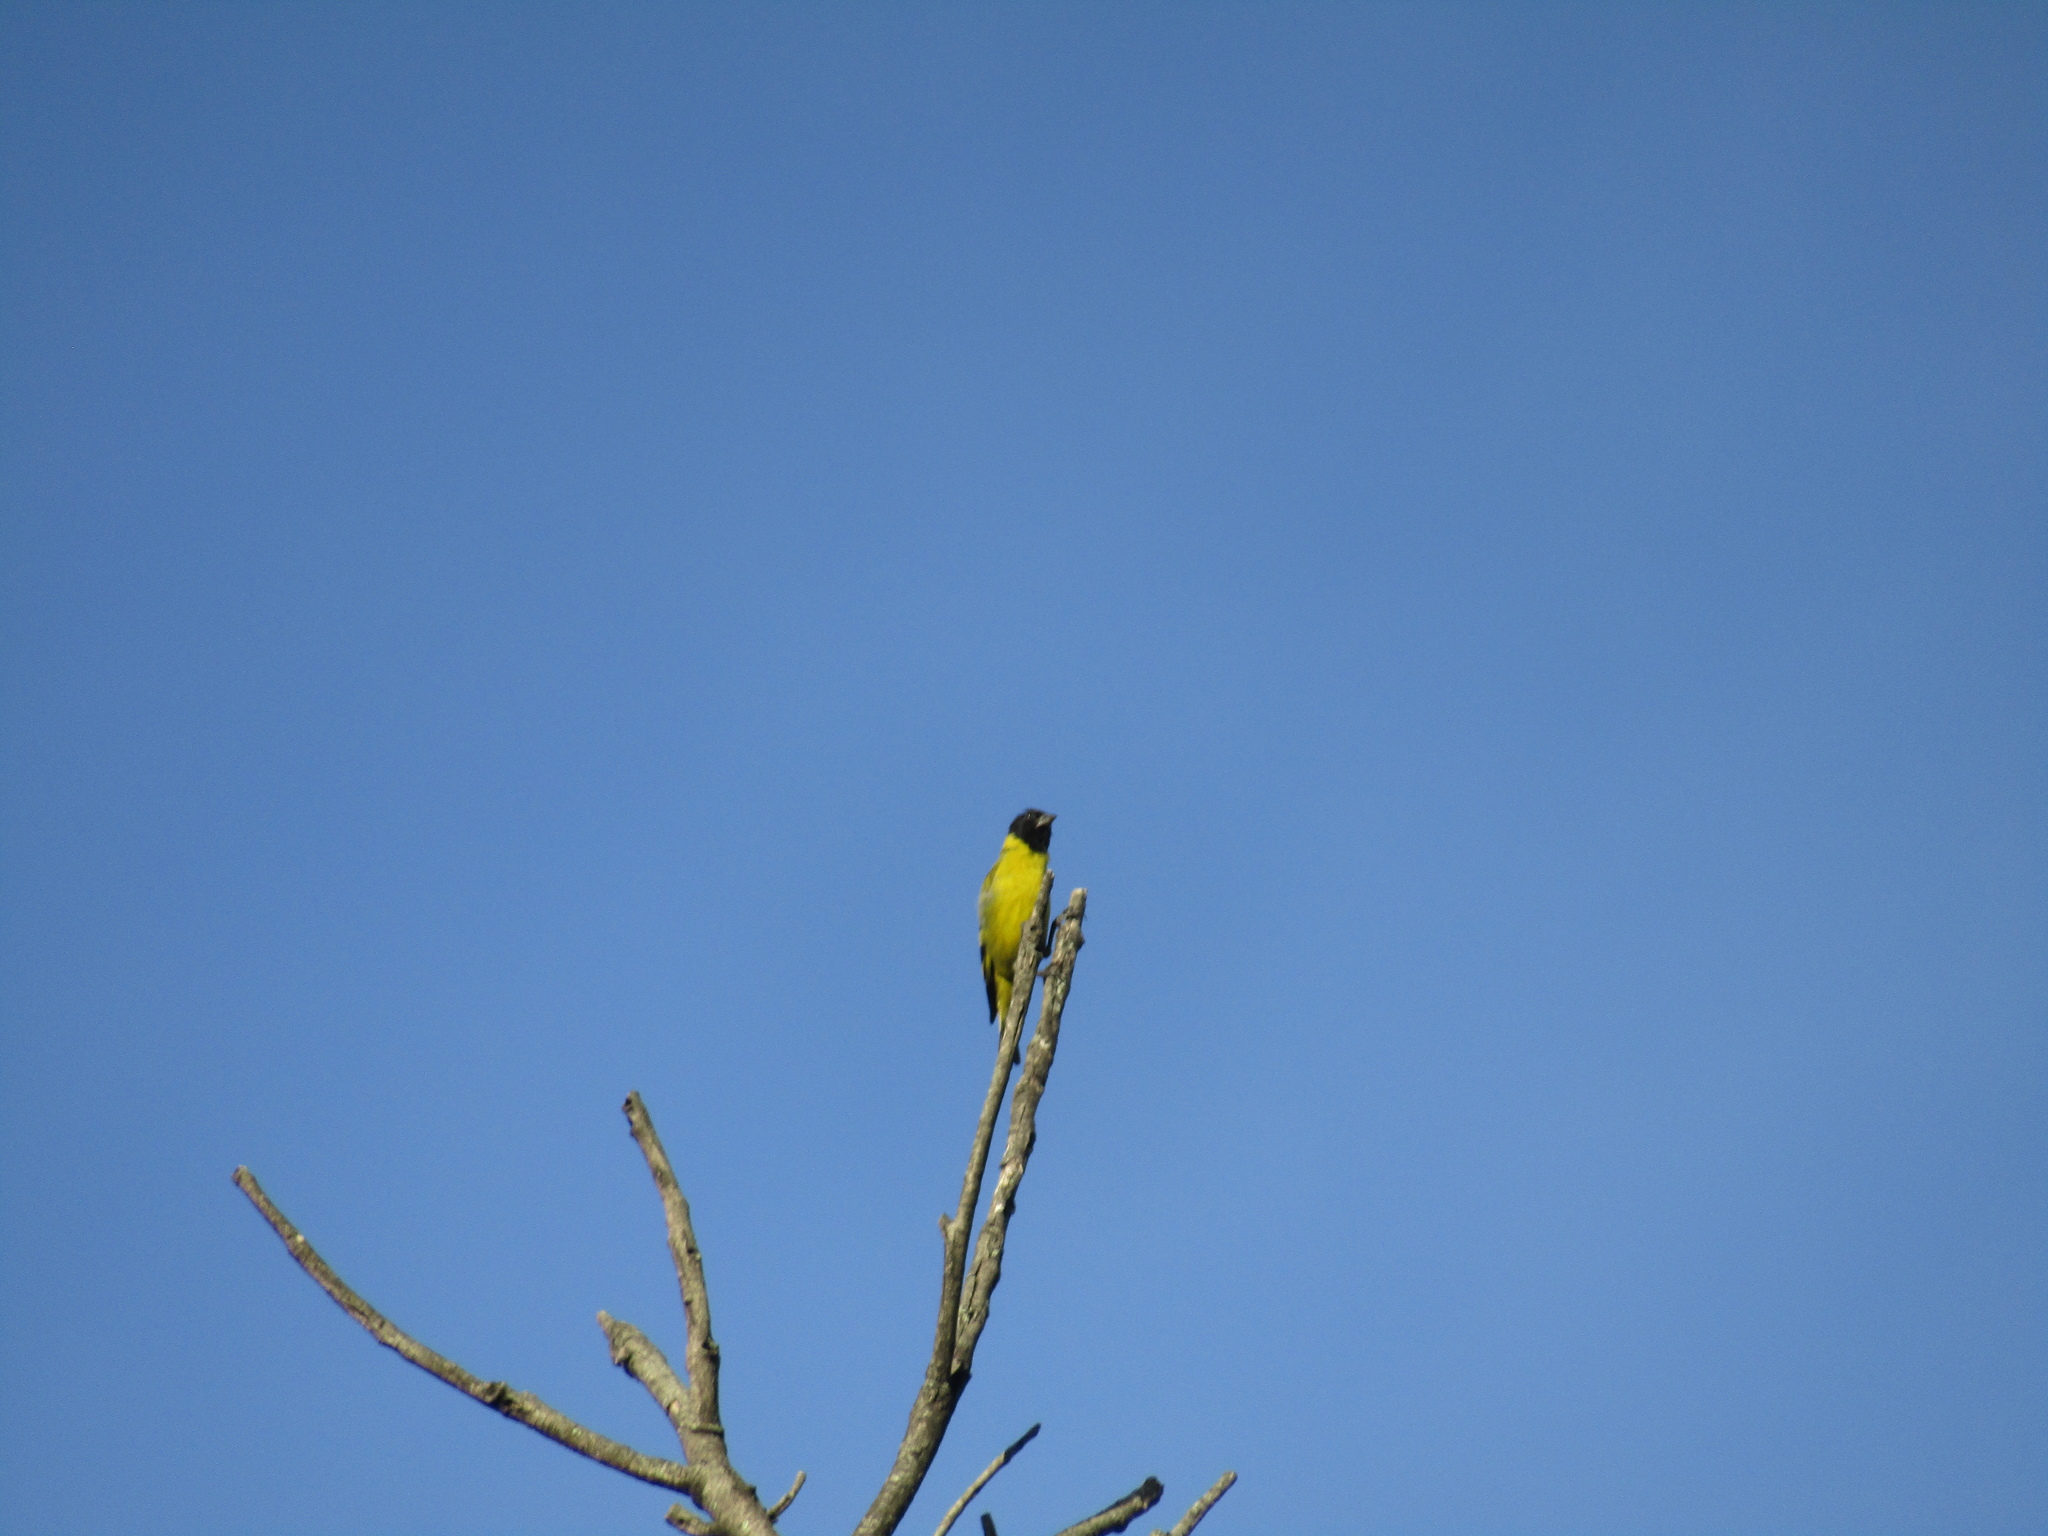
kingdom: Animalia
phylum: Chordata
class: Aves
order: Passeriformes
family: Fringillidae
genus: Spinus
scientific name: Spinus magellanicus
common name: Hooded siskin
